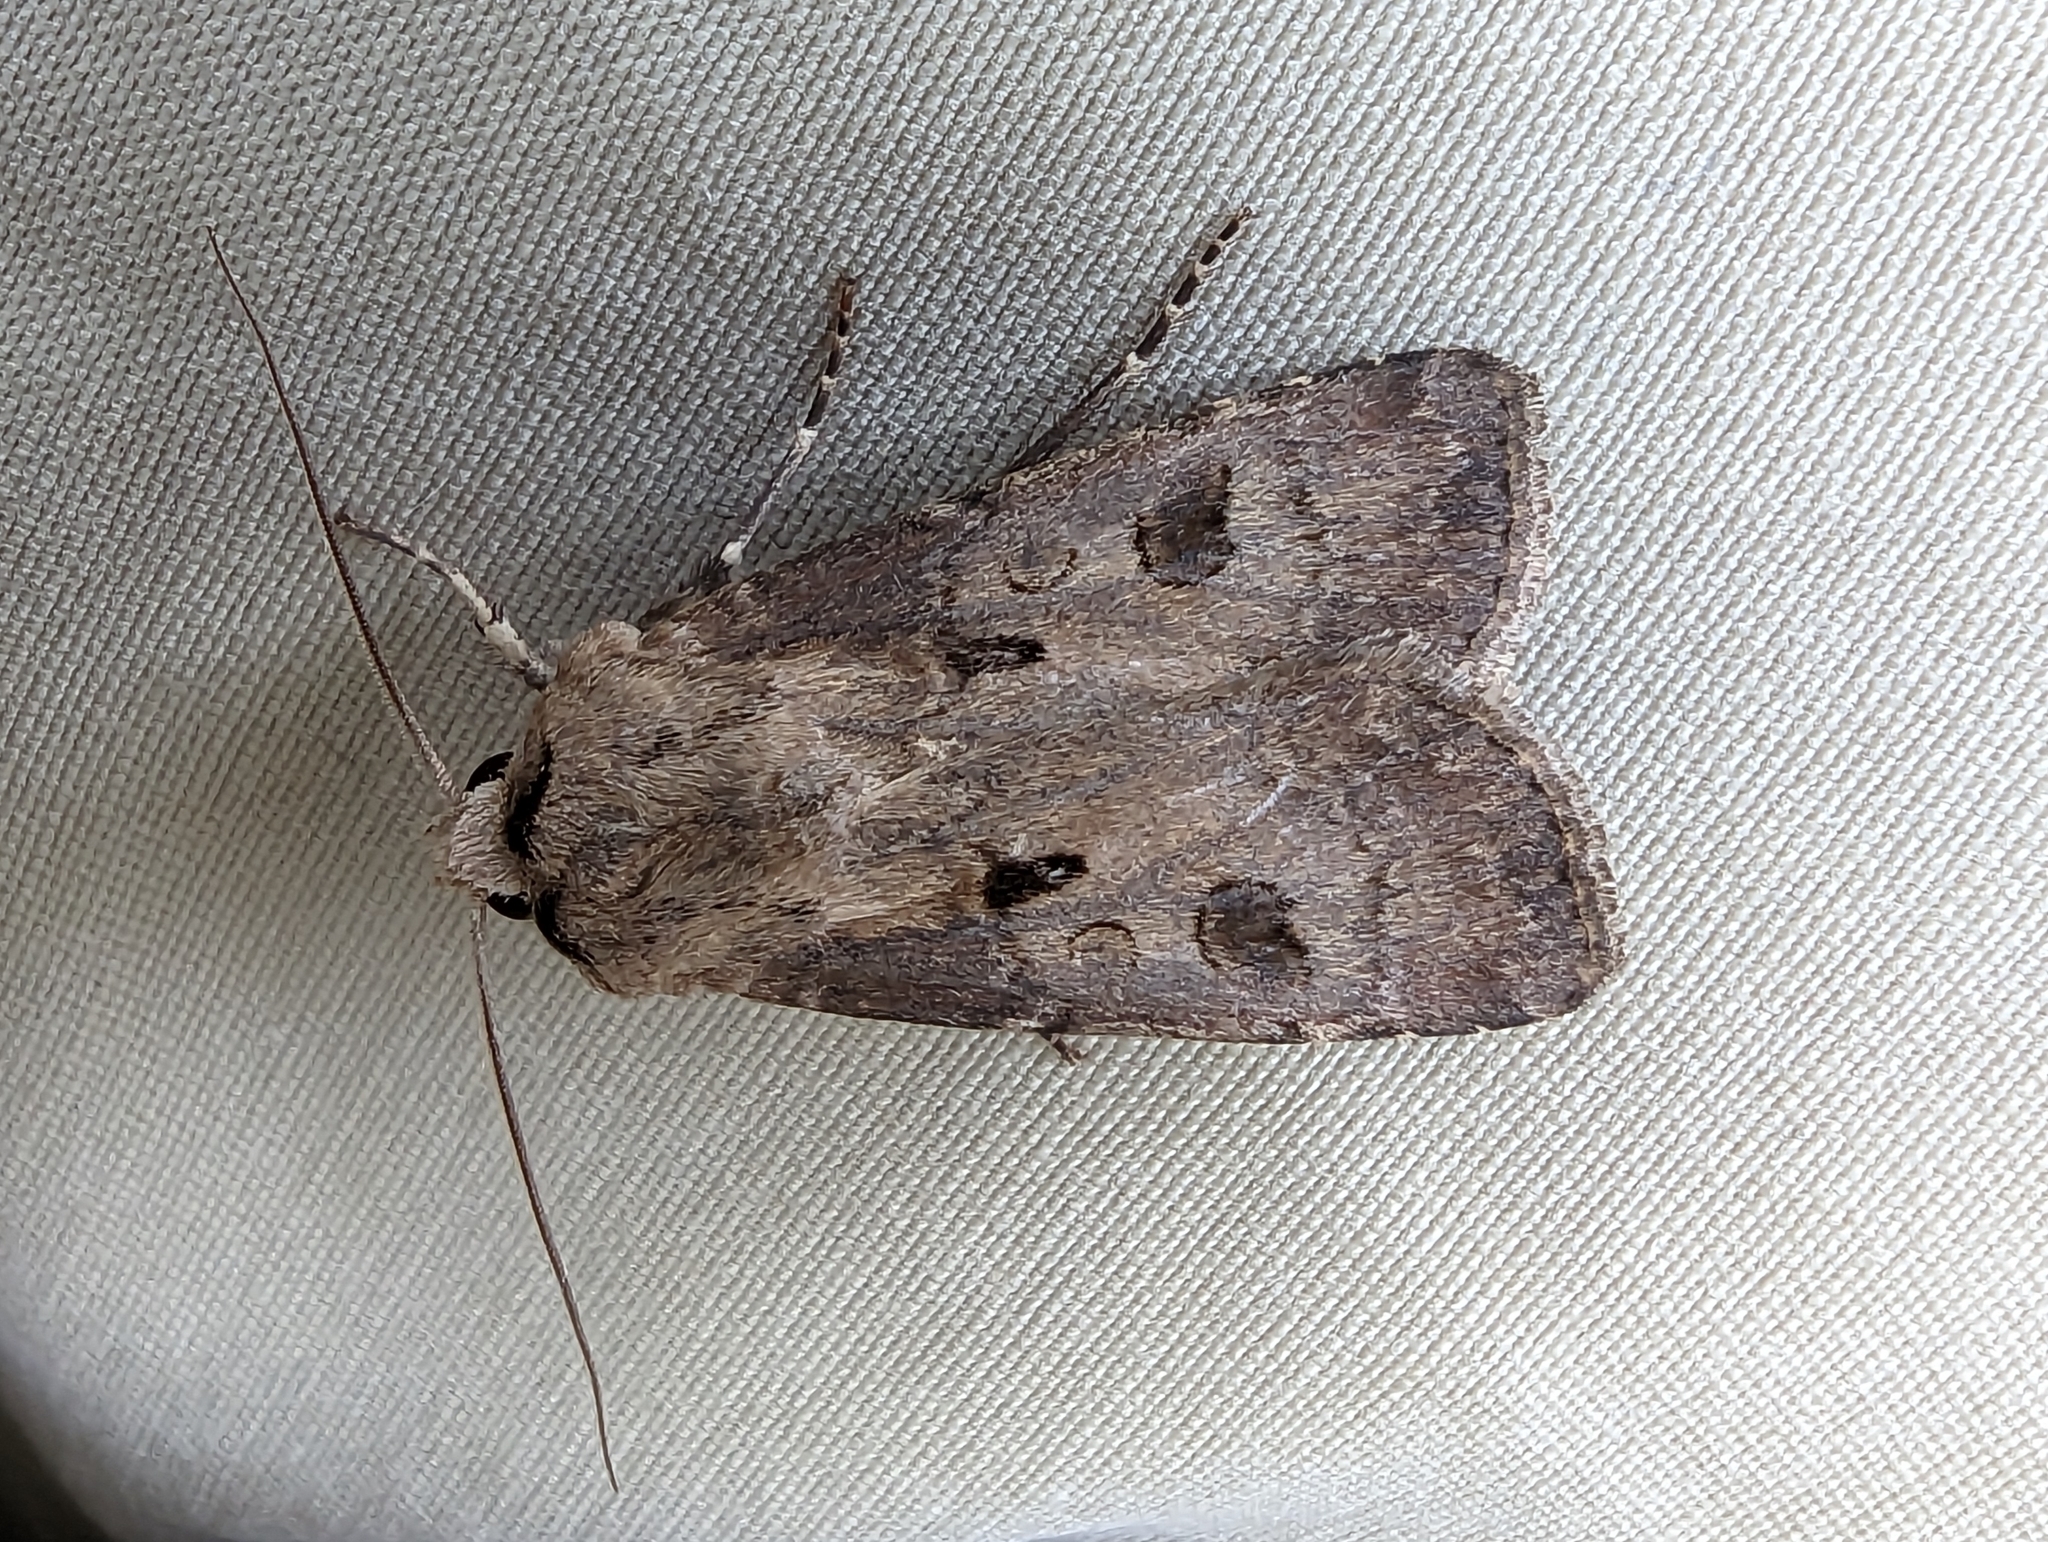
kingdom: Animalia
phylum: Arthropoda
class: Insecta
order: Lepidoptera
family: Noctuidae
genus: Agrotis
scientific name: Agrotis exclamationis
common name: Heart and dart
